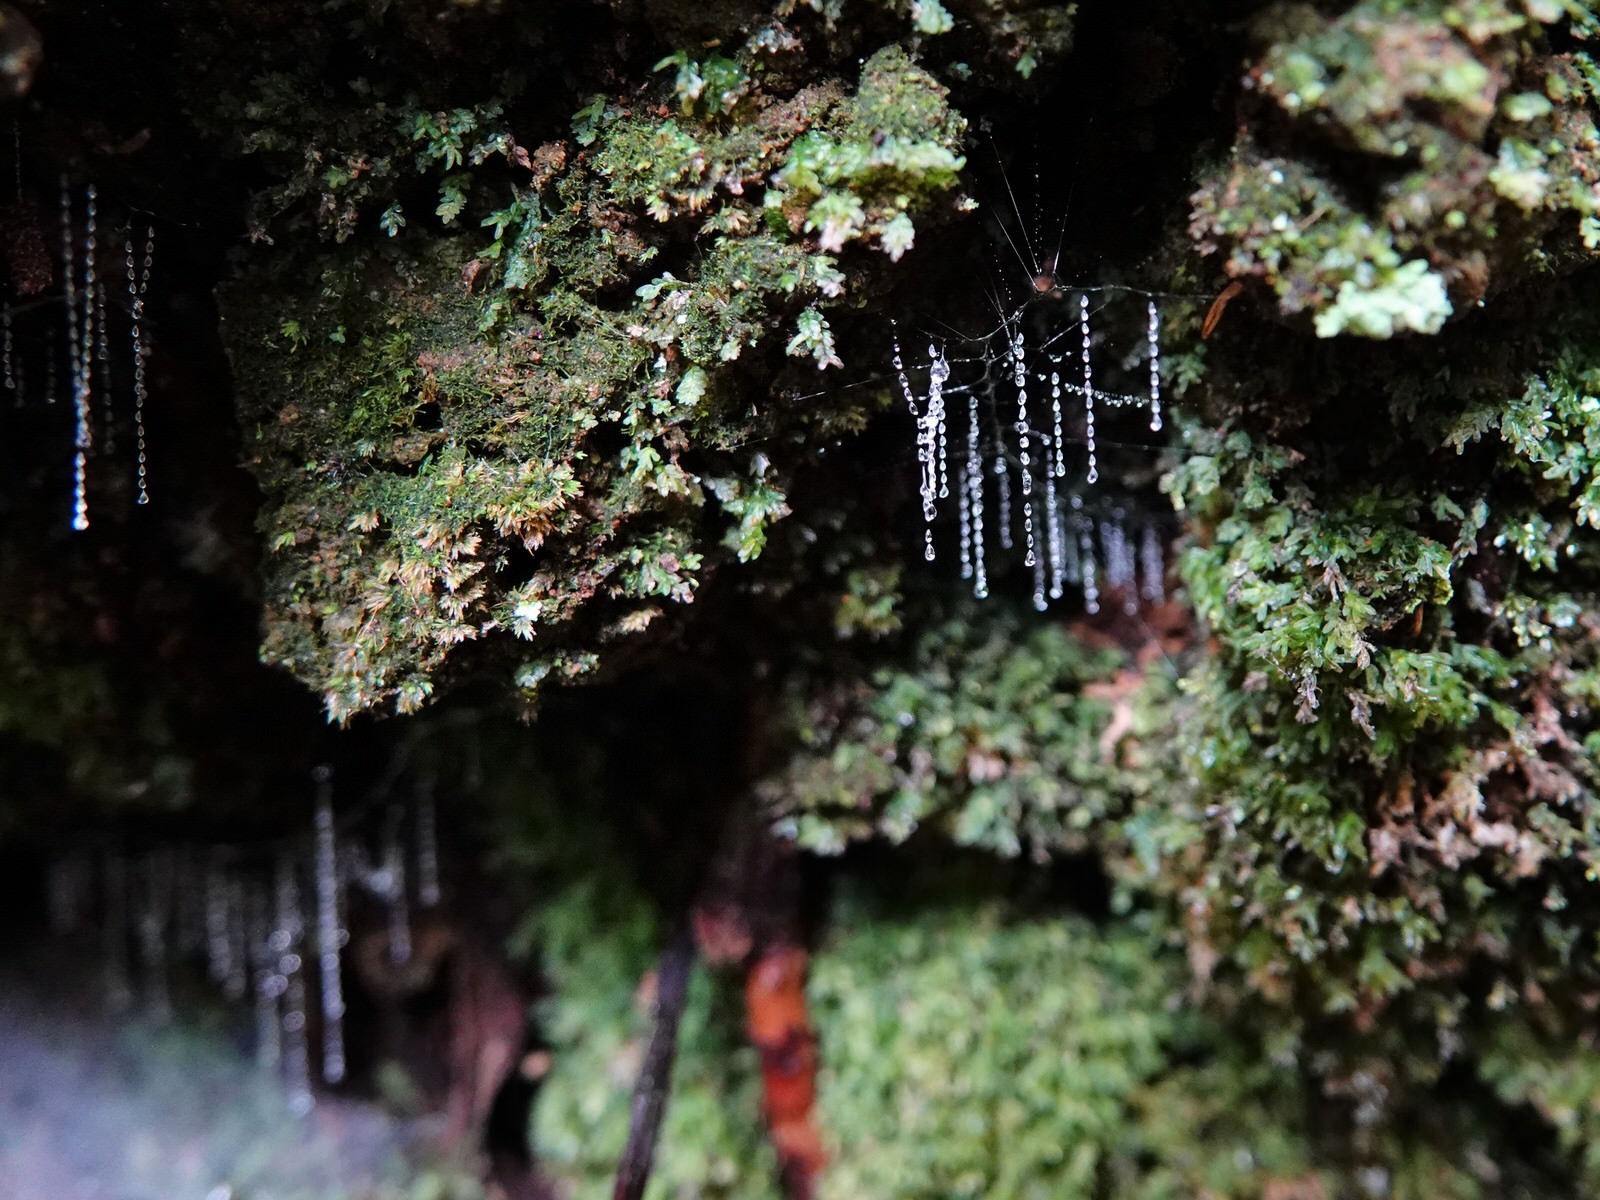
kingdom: Animalia
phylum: Arthropoda
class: Insecta
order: Diptera
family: Keroplatidae
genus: Arachnocampa
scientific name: Arachnocampa luminosa
